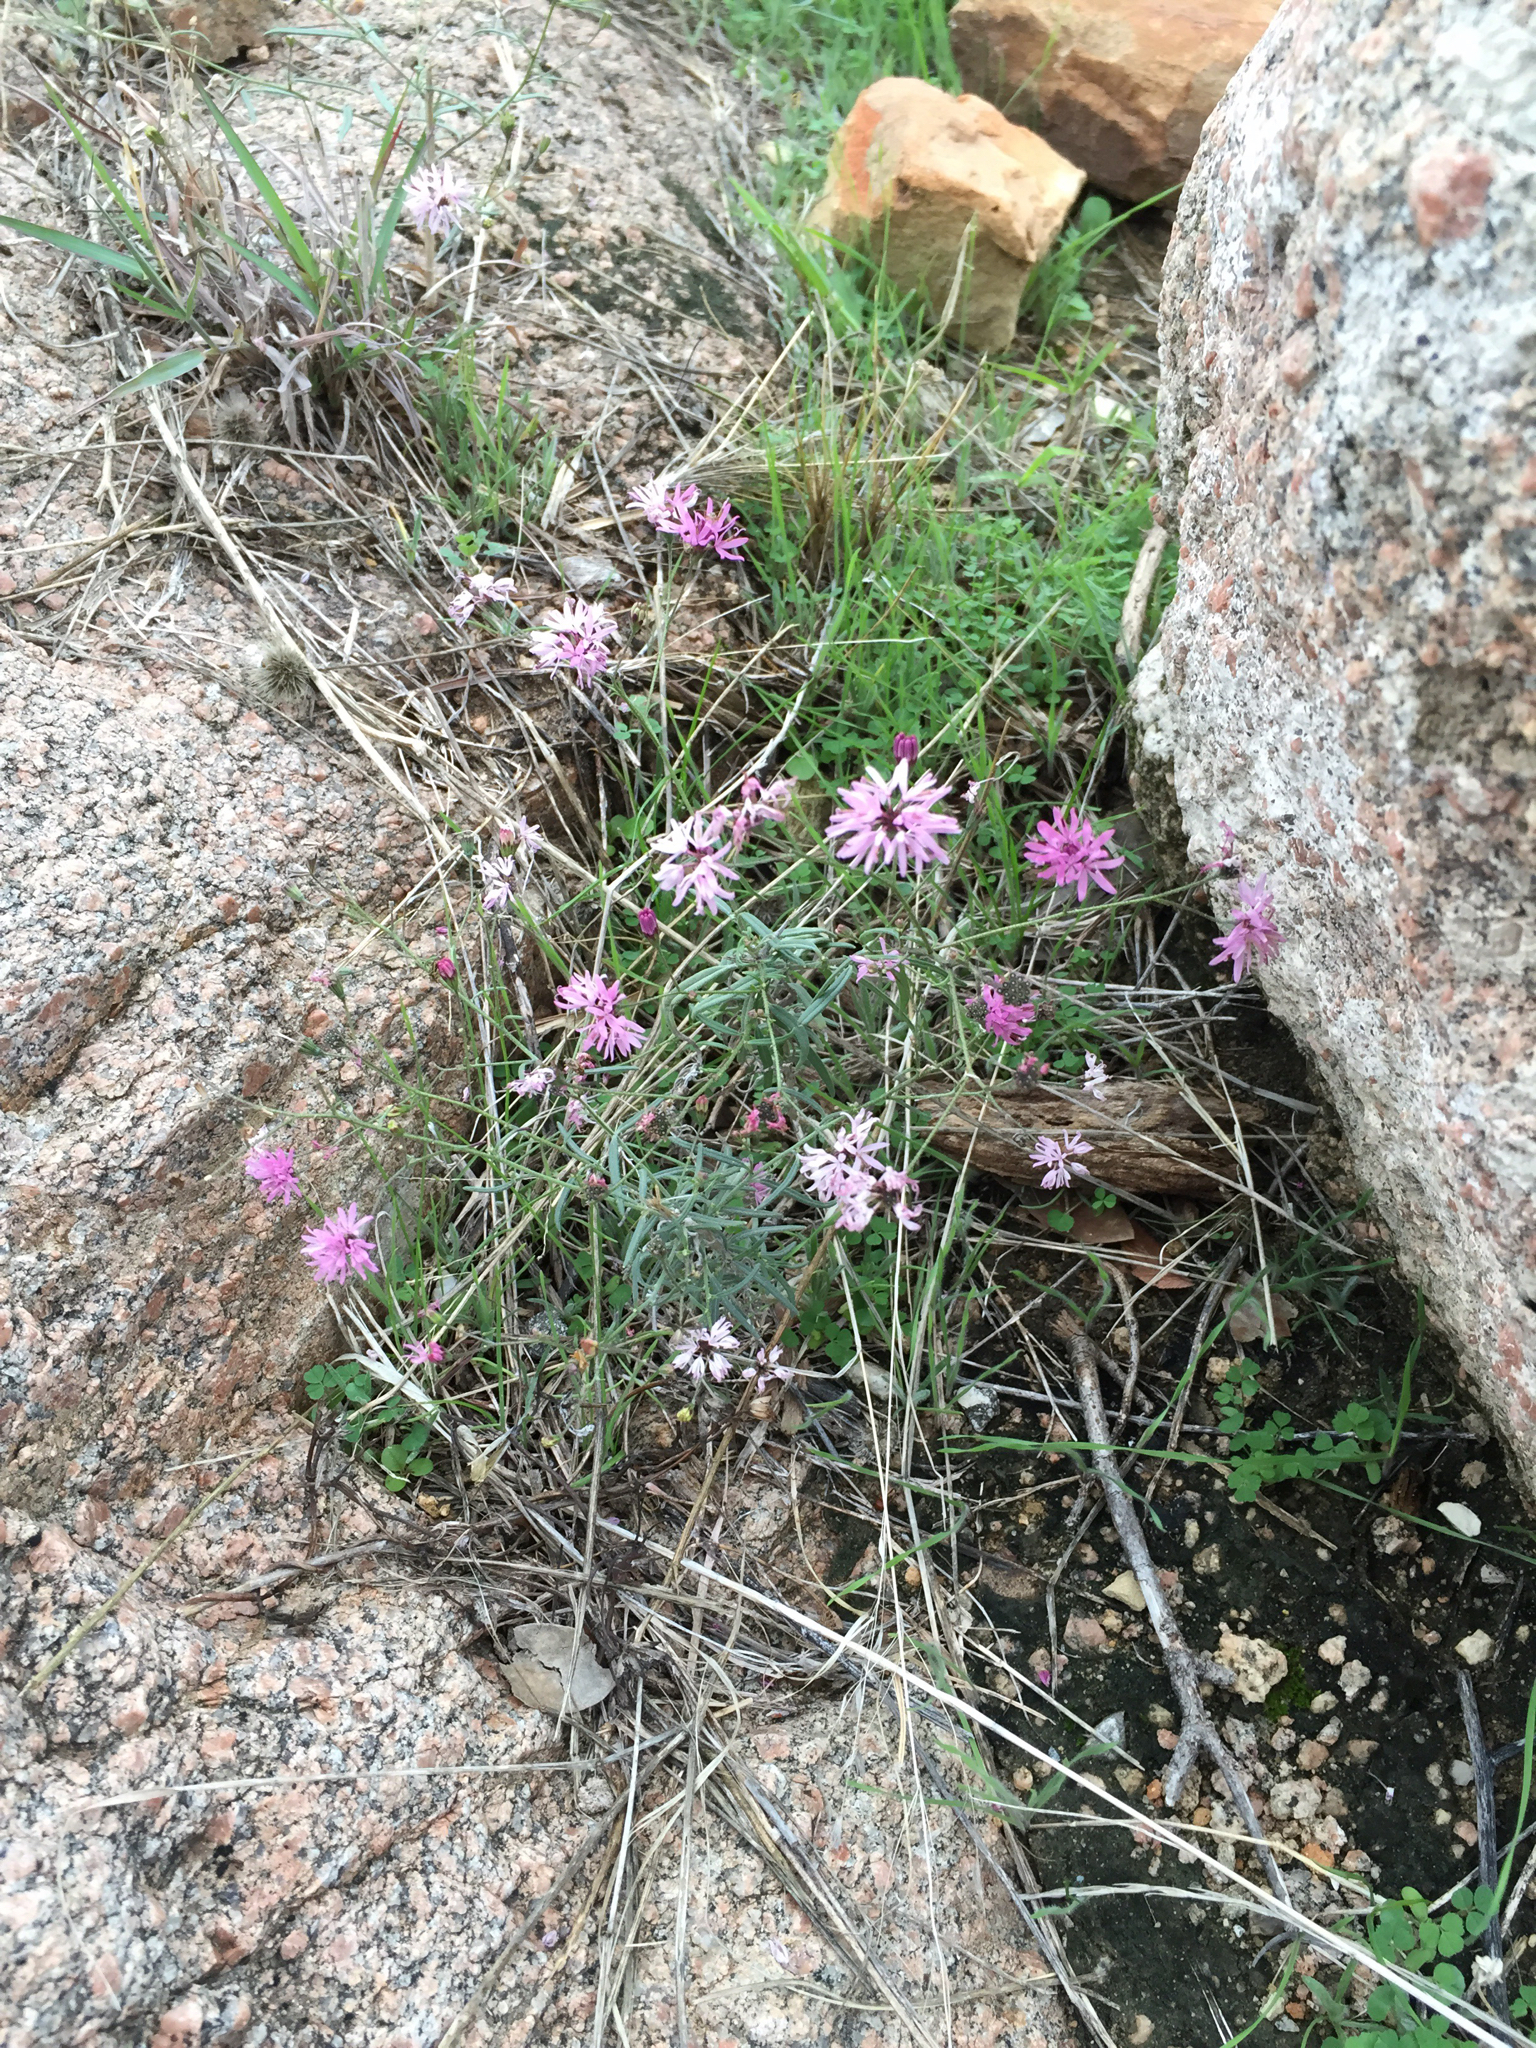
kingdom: Plantae
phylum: Tracheophyta
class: Magnoliopsida
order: Asterales
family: Asteraceae
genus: Palafoxia
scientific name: Palafoxia callosa
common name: Small palafox
